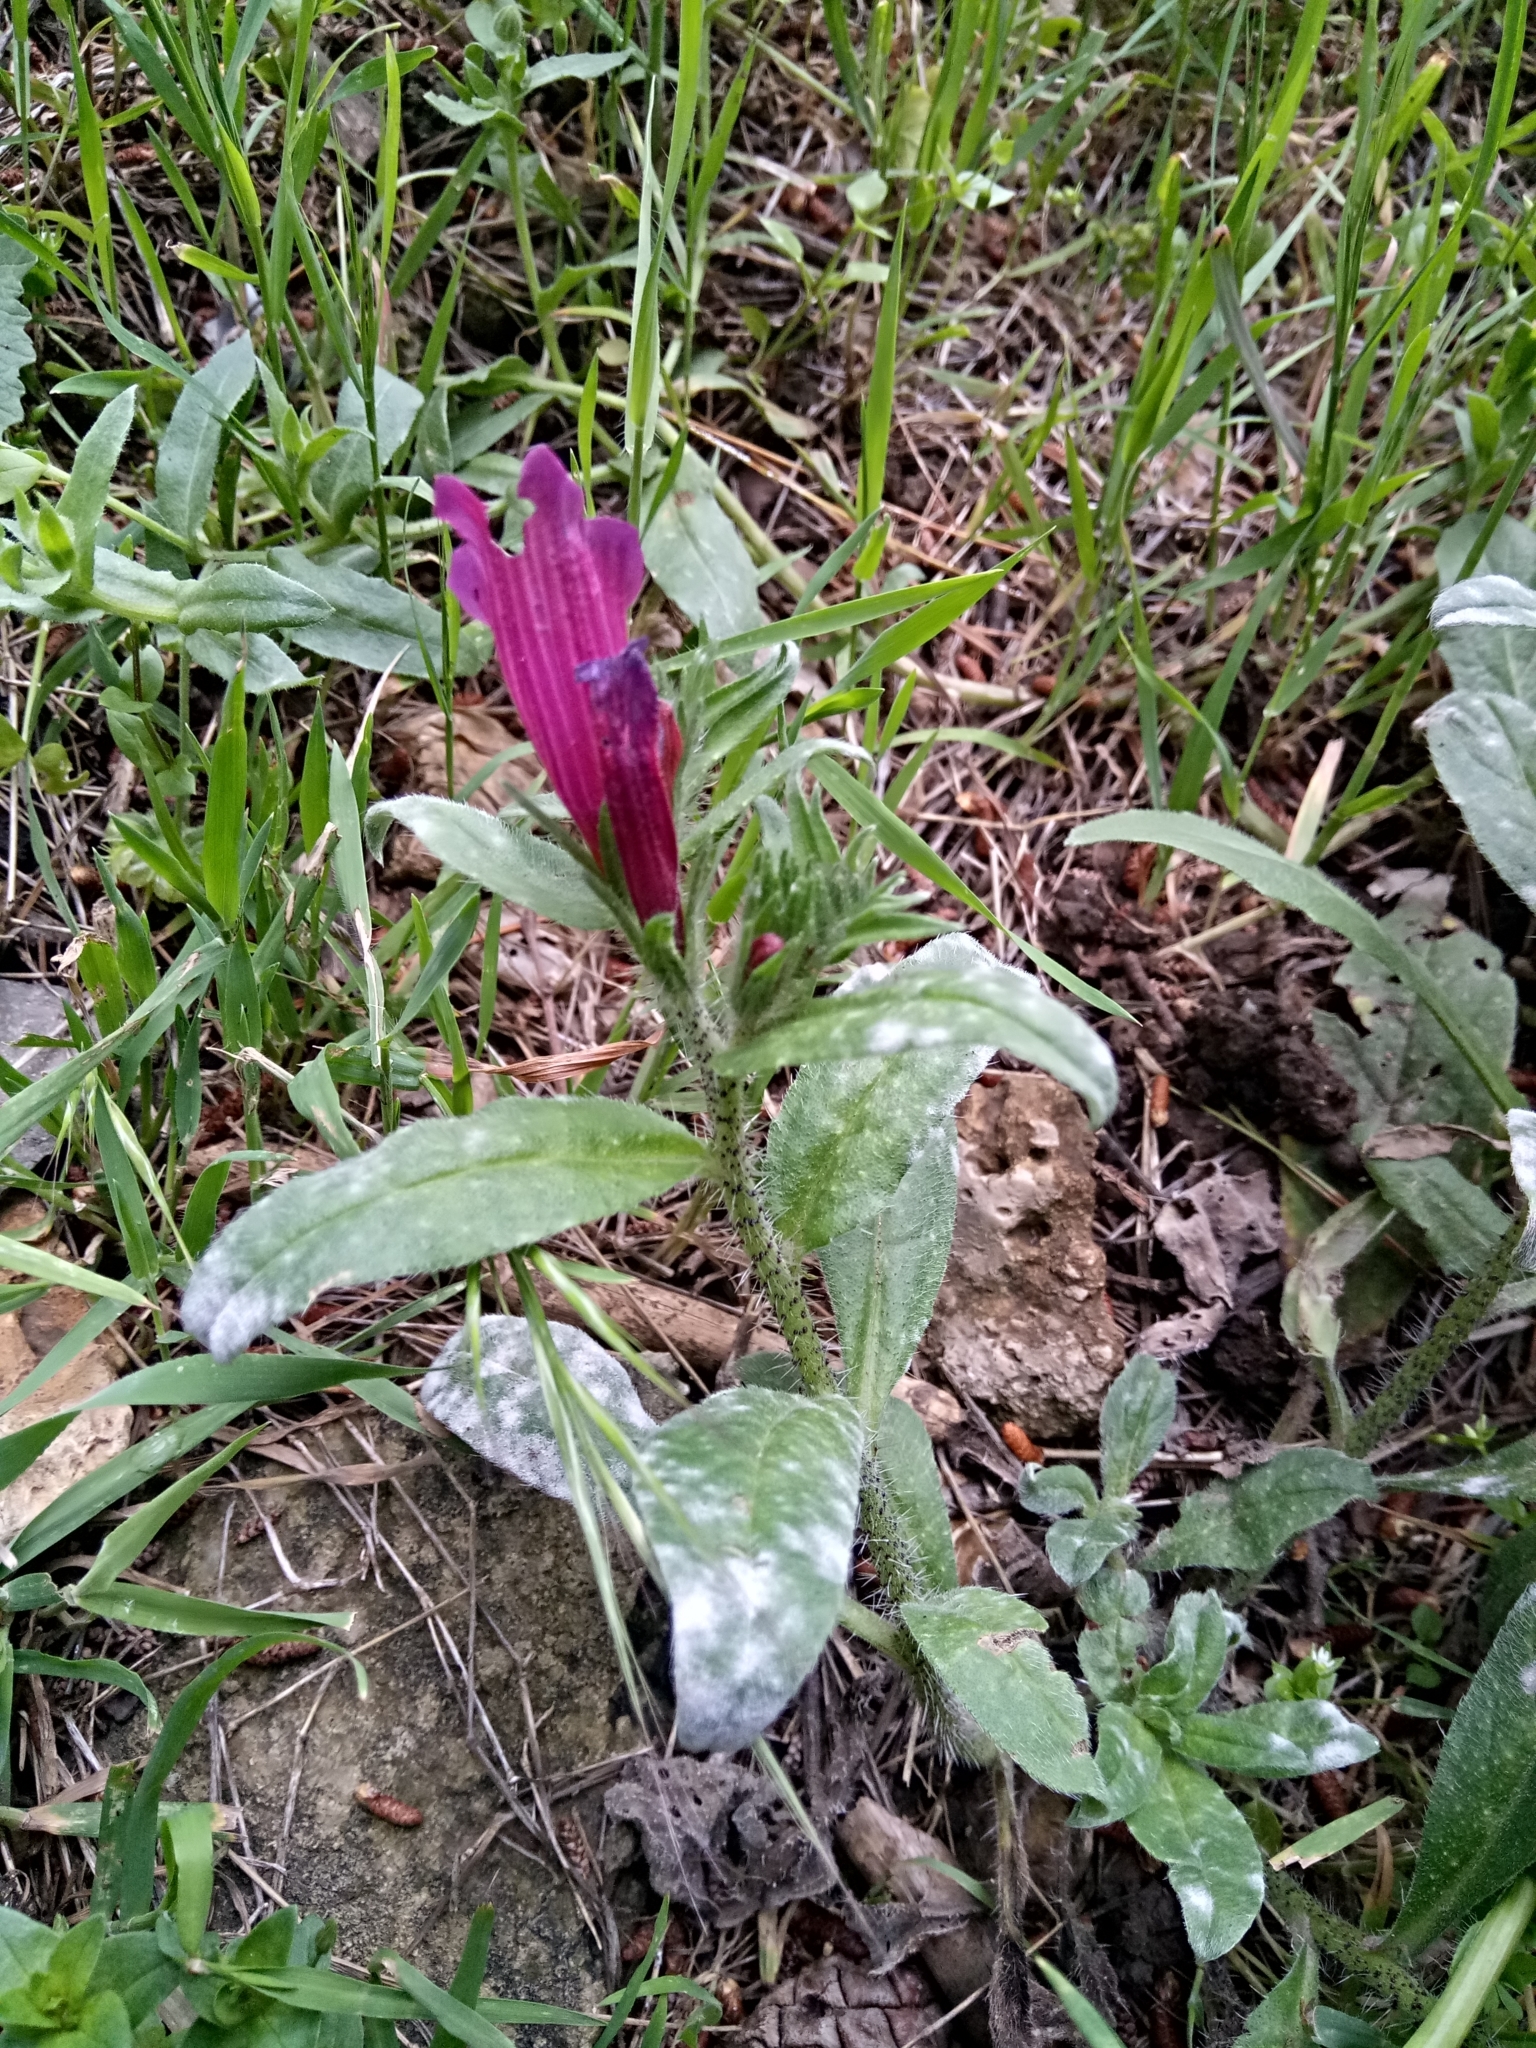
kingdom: Plantae
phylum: Tracheophyta
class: Magnoliopsida
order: Boraginales
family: Boraginaceae
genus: Echium
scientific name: Echium creticum
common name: Cretan viper's bugloss
